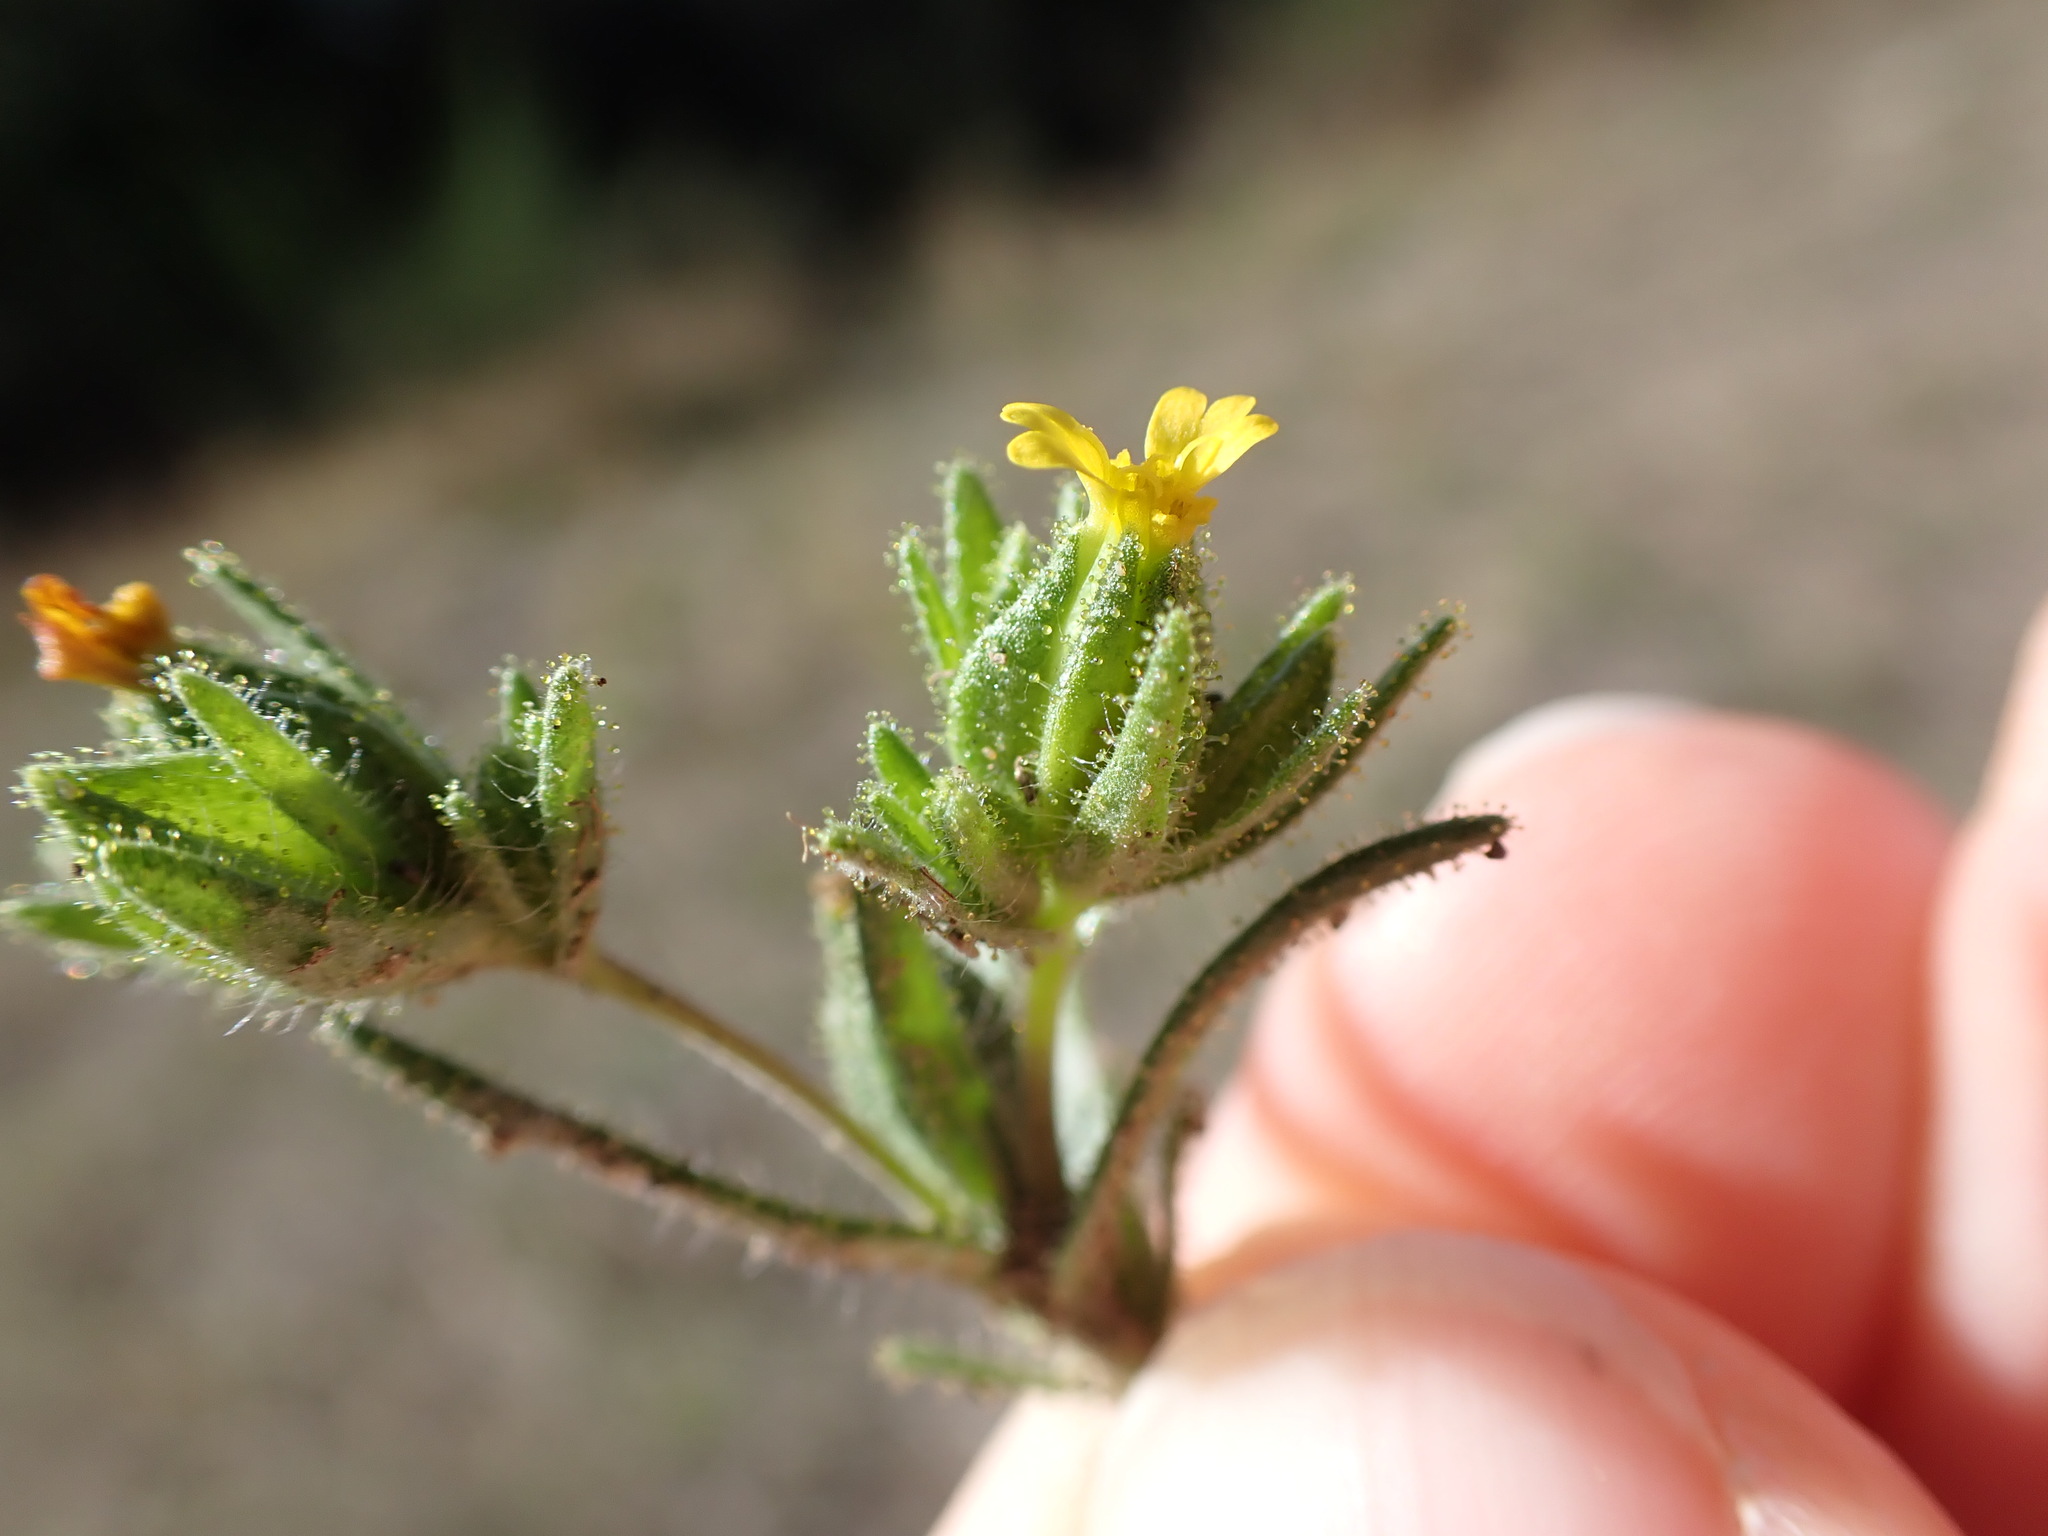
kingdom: Plantae
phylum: Tracheophyta
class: Magnoliopsida
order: Asterales
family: Asteraceae
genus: Madia
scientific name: Madia glomerata
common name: Mountain tarweed
